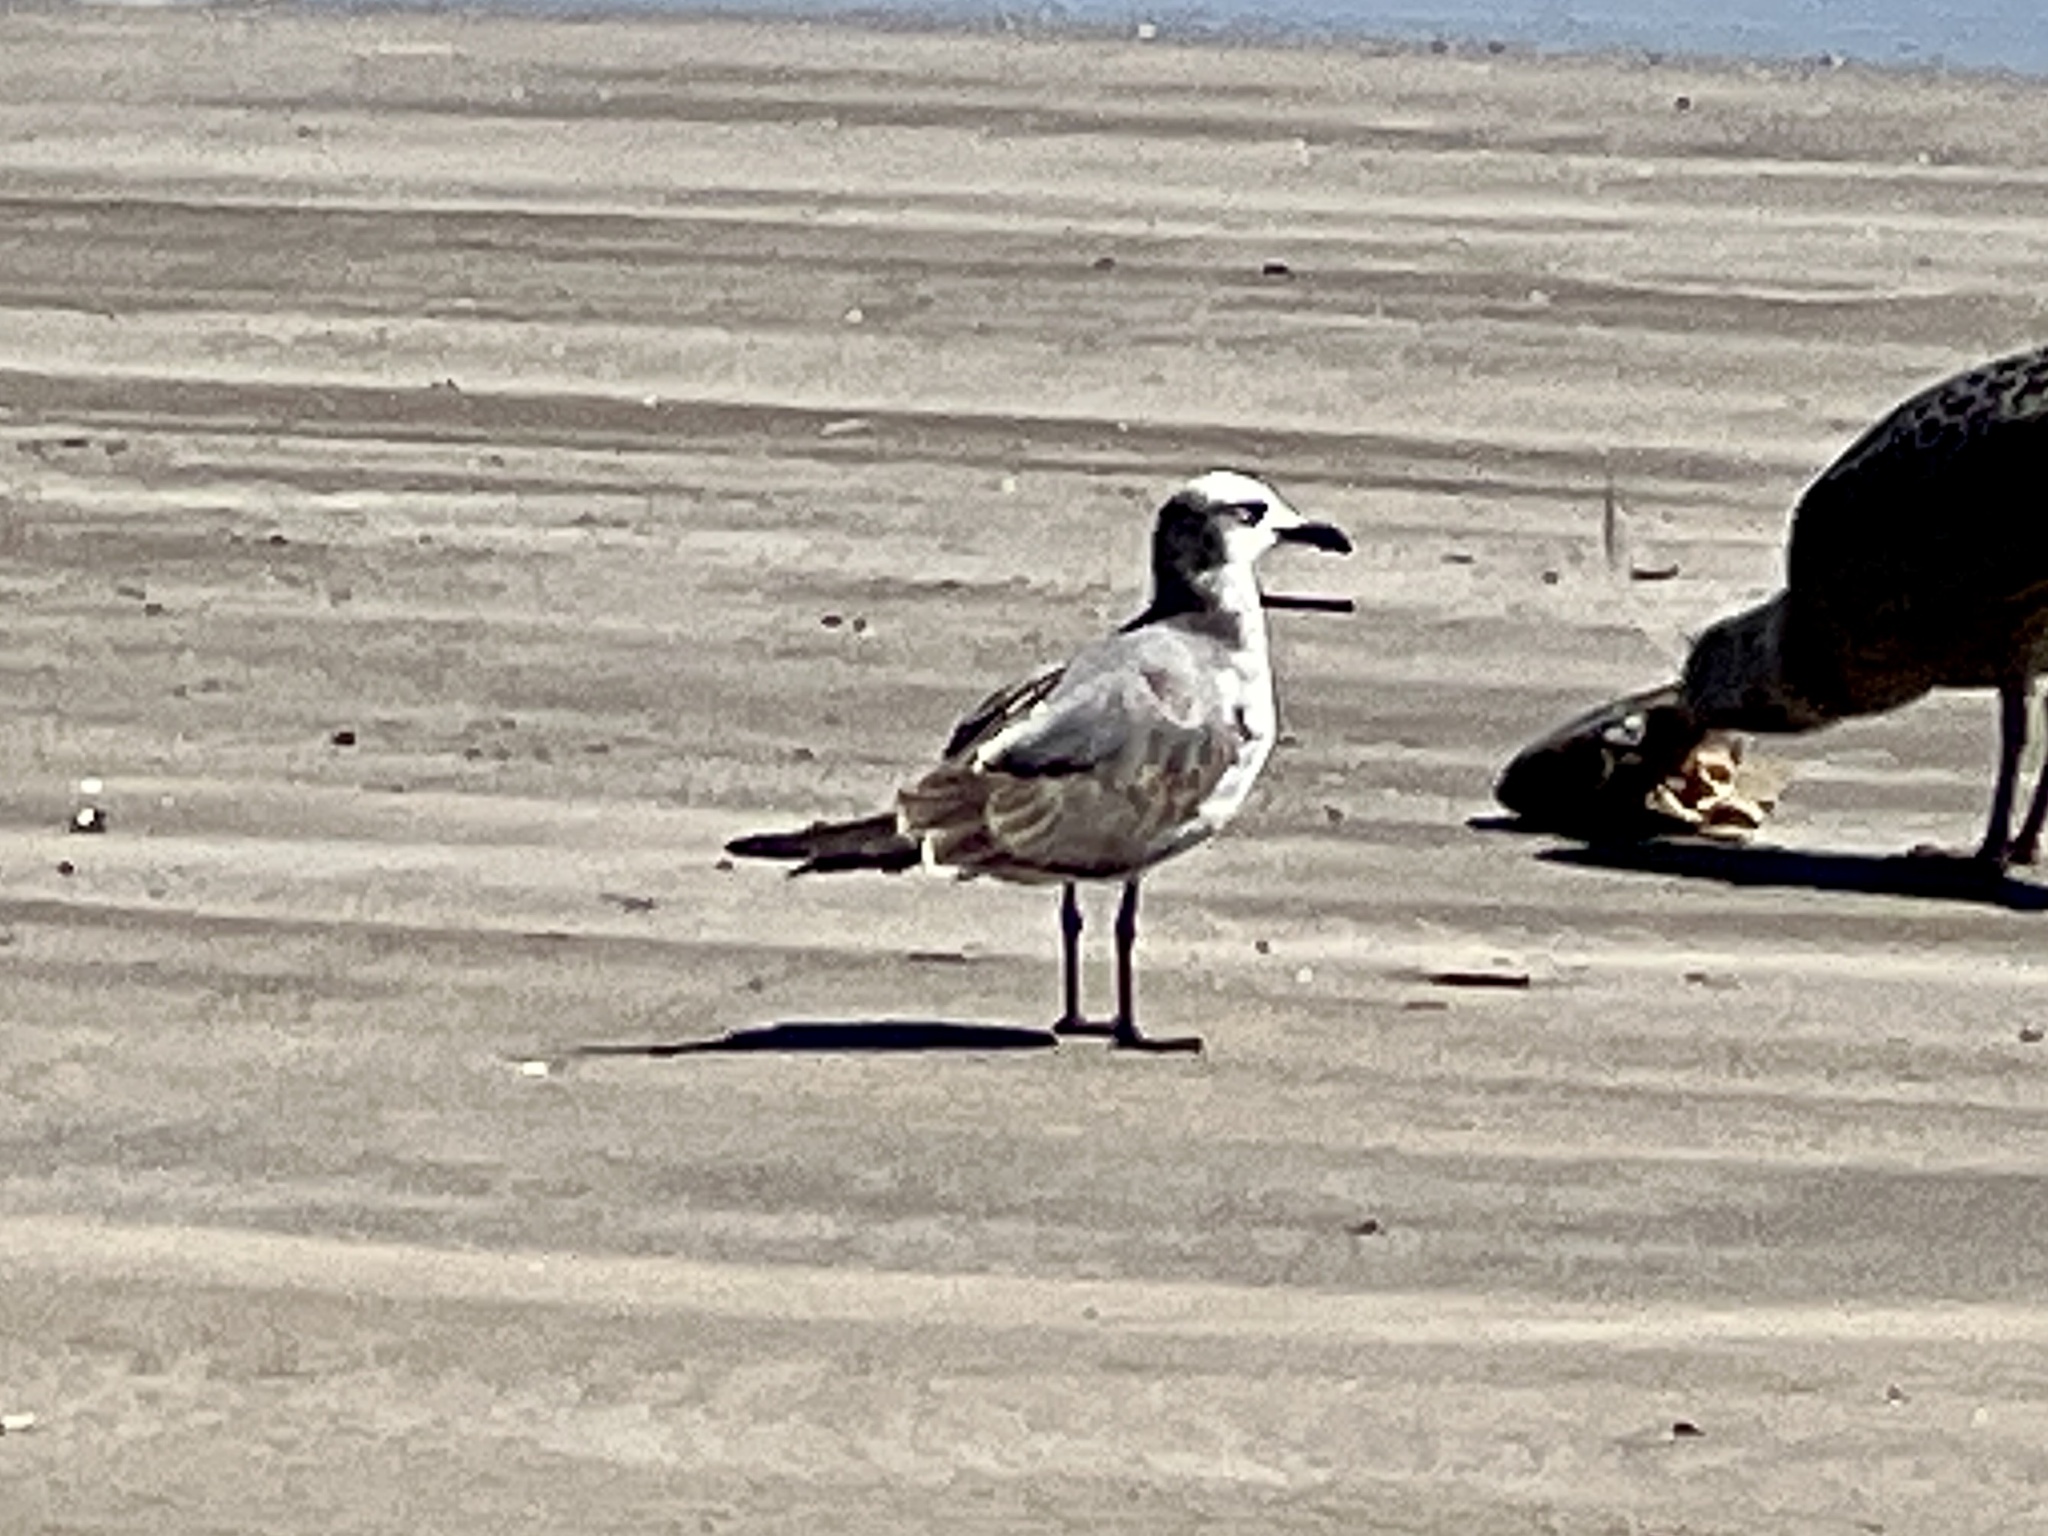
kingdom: Animalia
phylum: Chordata
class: Aves
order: Charadriiformes
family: Laridae
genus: Leucophaeus
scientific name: Leucophaeus atricilla
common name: Laughing gull
